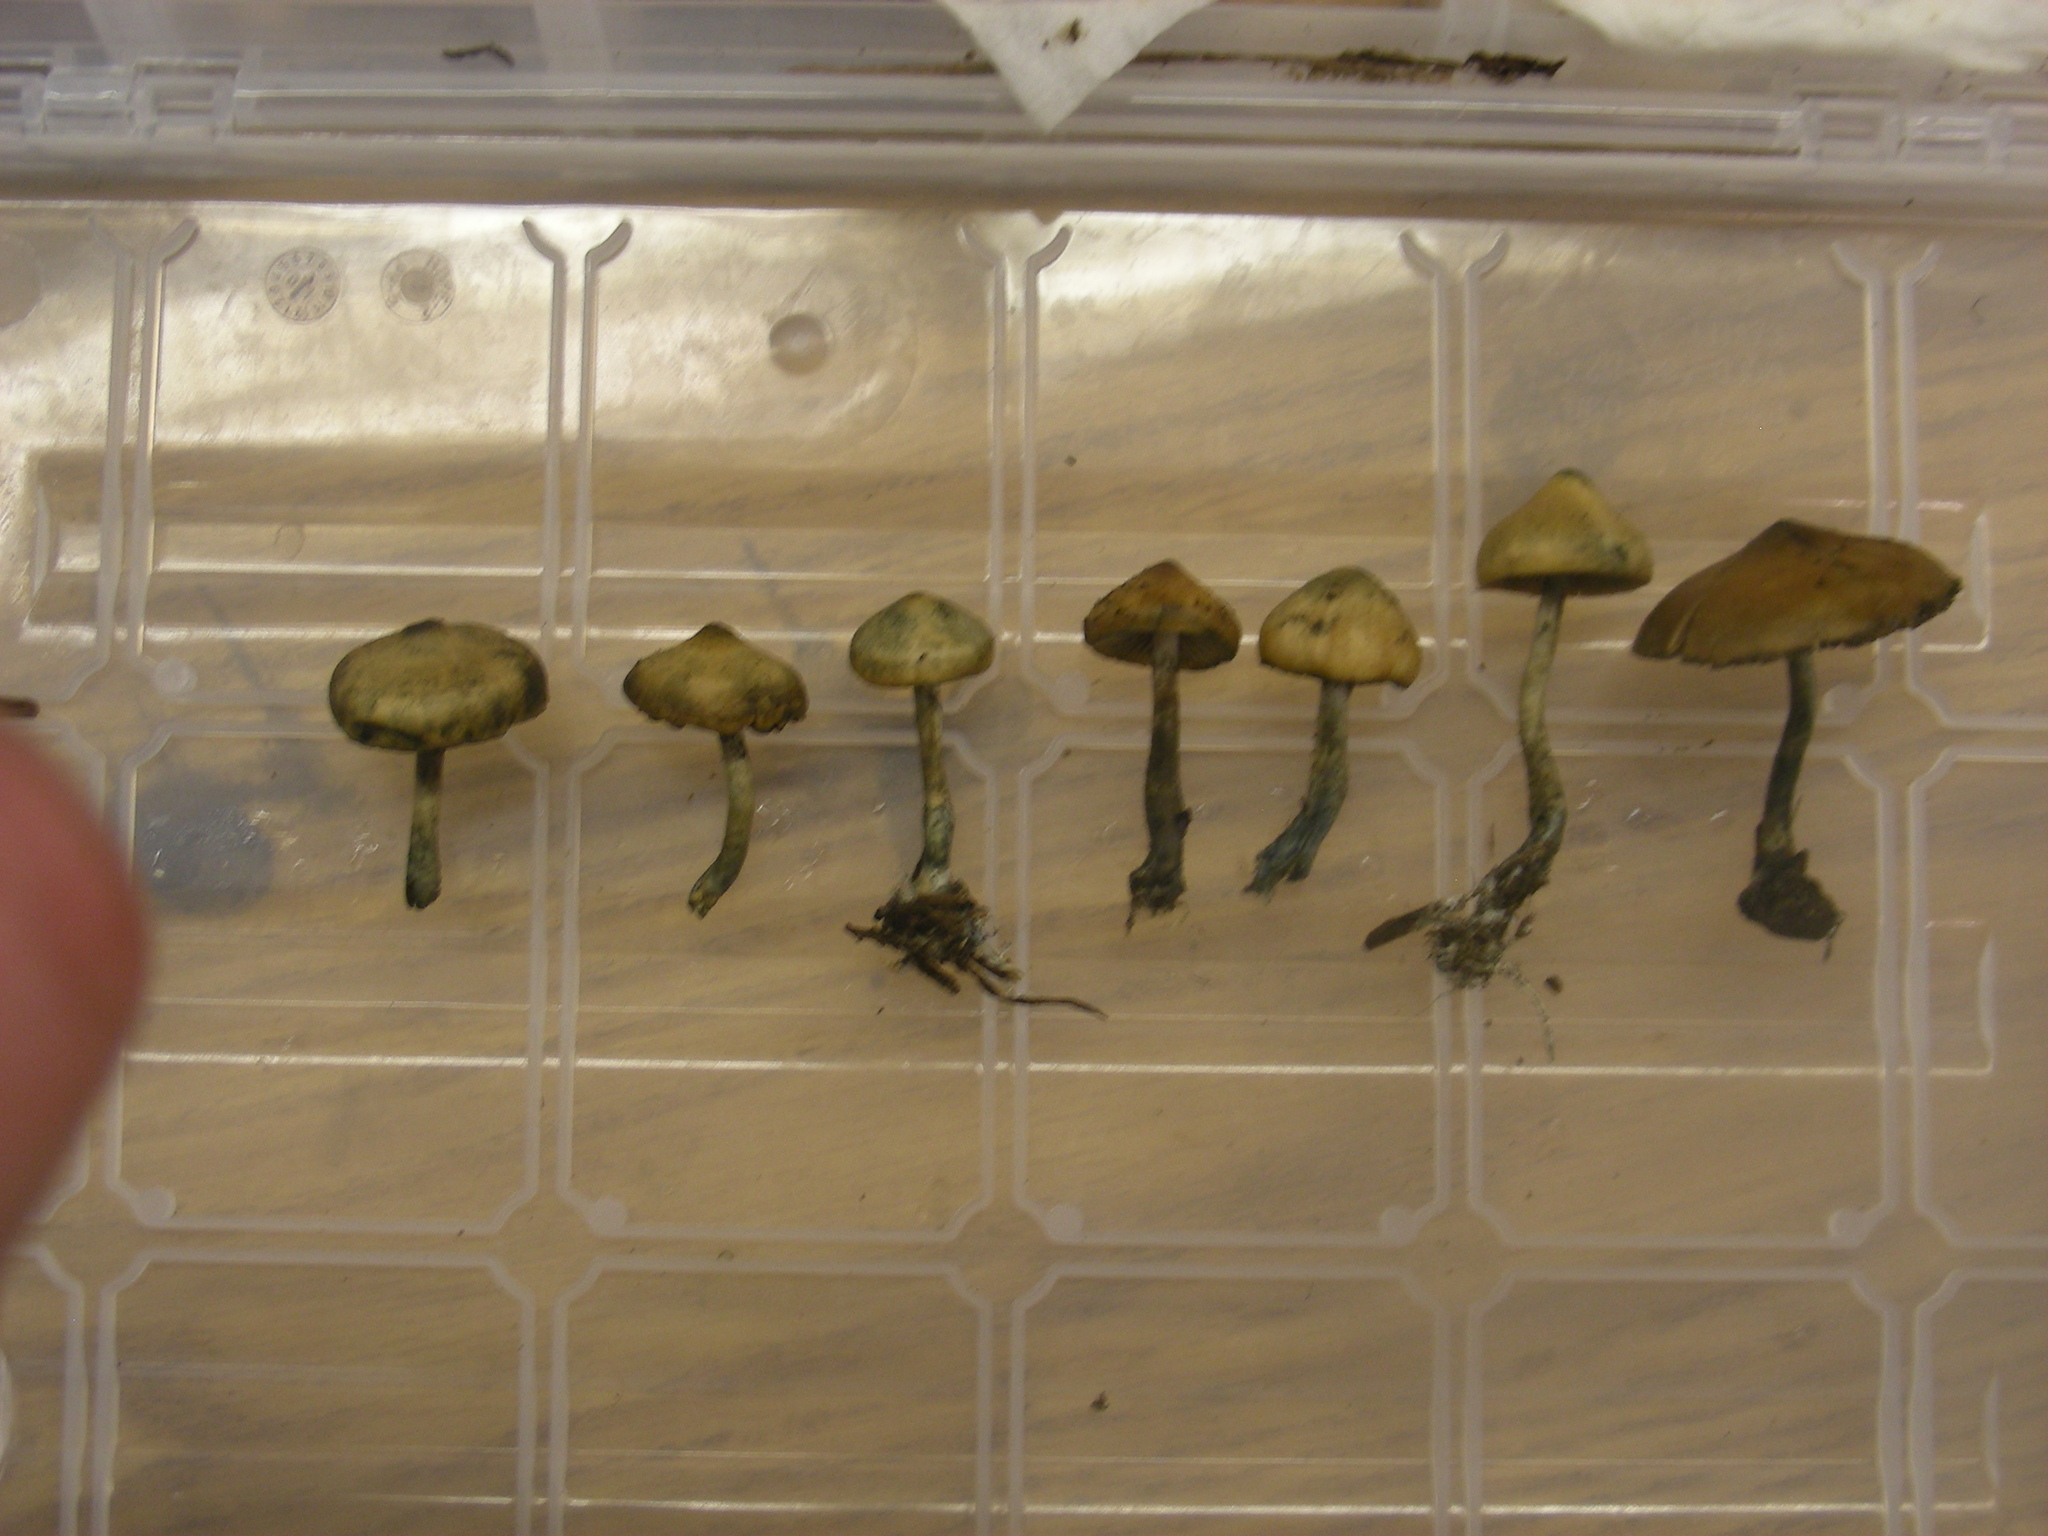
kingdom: Fungi
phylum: Basidiomycota
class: Agaricomycetes
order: Agaricales
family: Hymenogastraceae
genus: Psilocybe
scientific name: Psilocybe allenii
